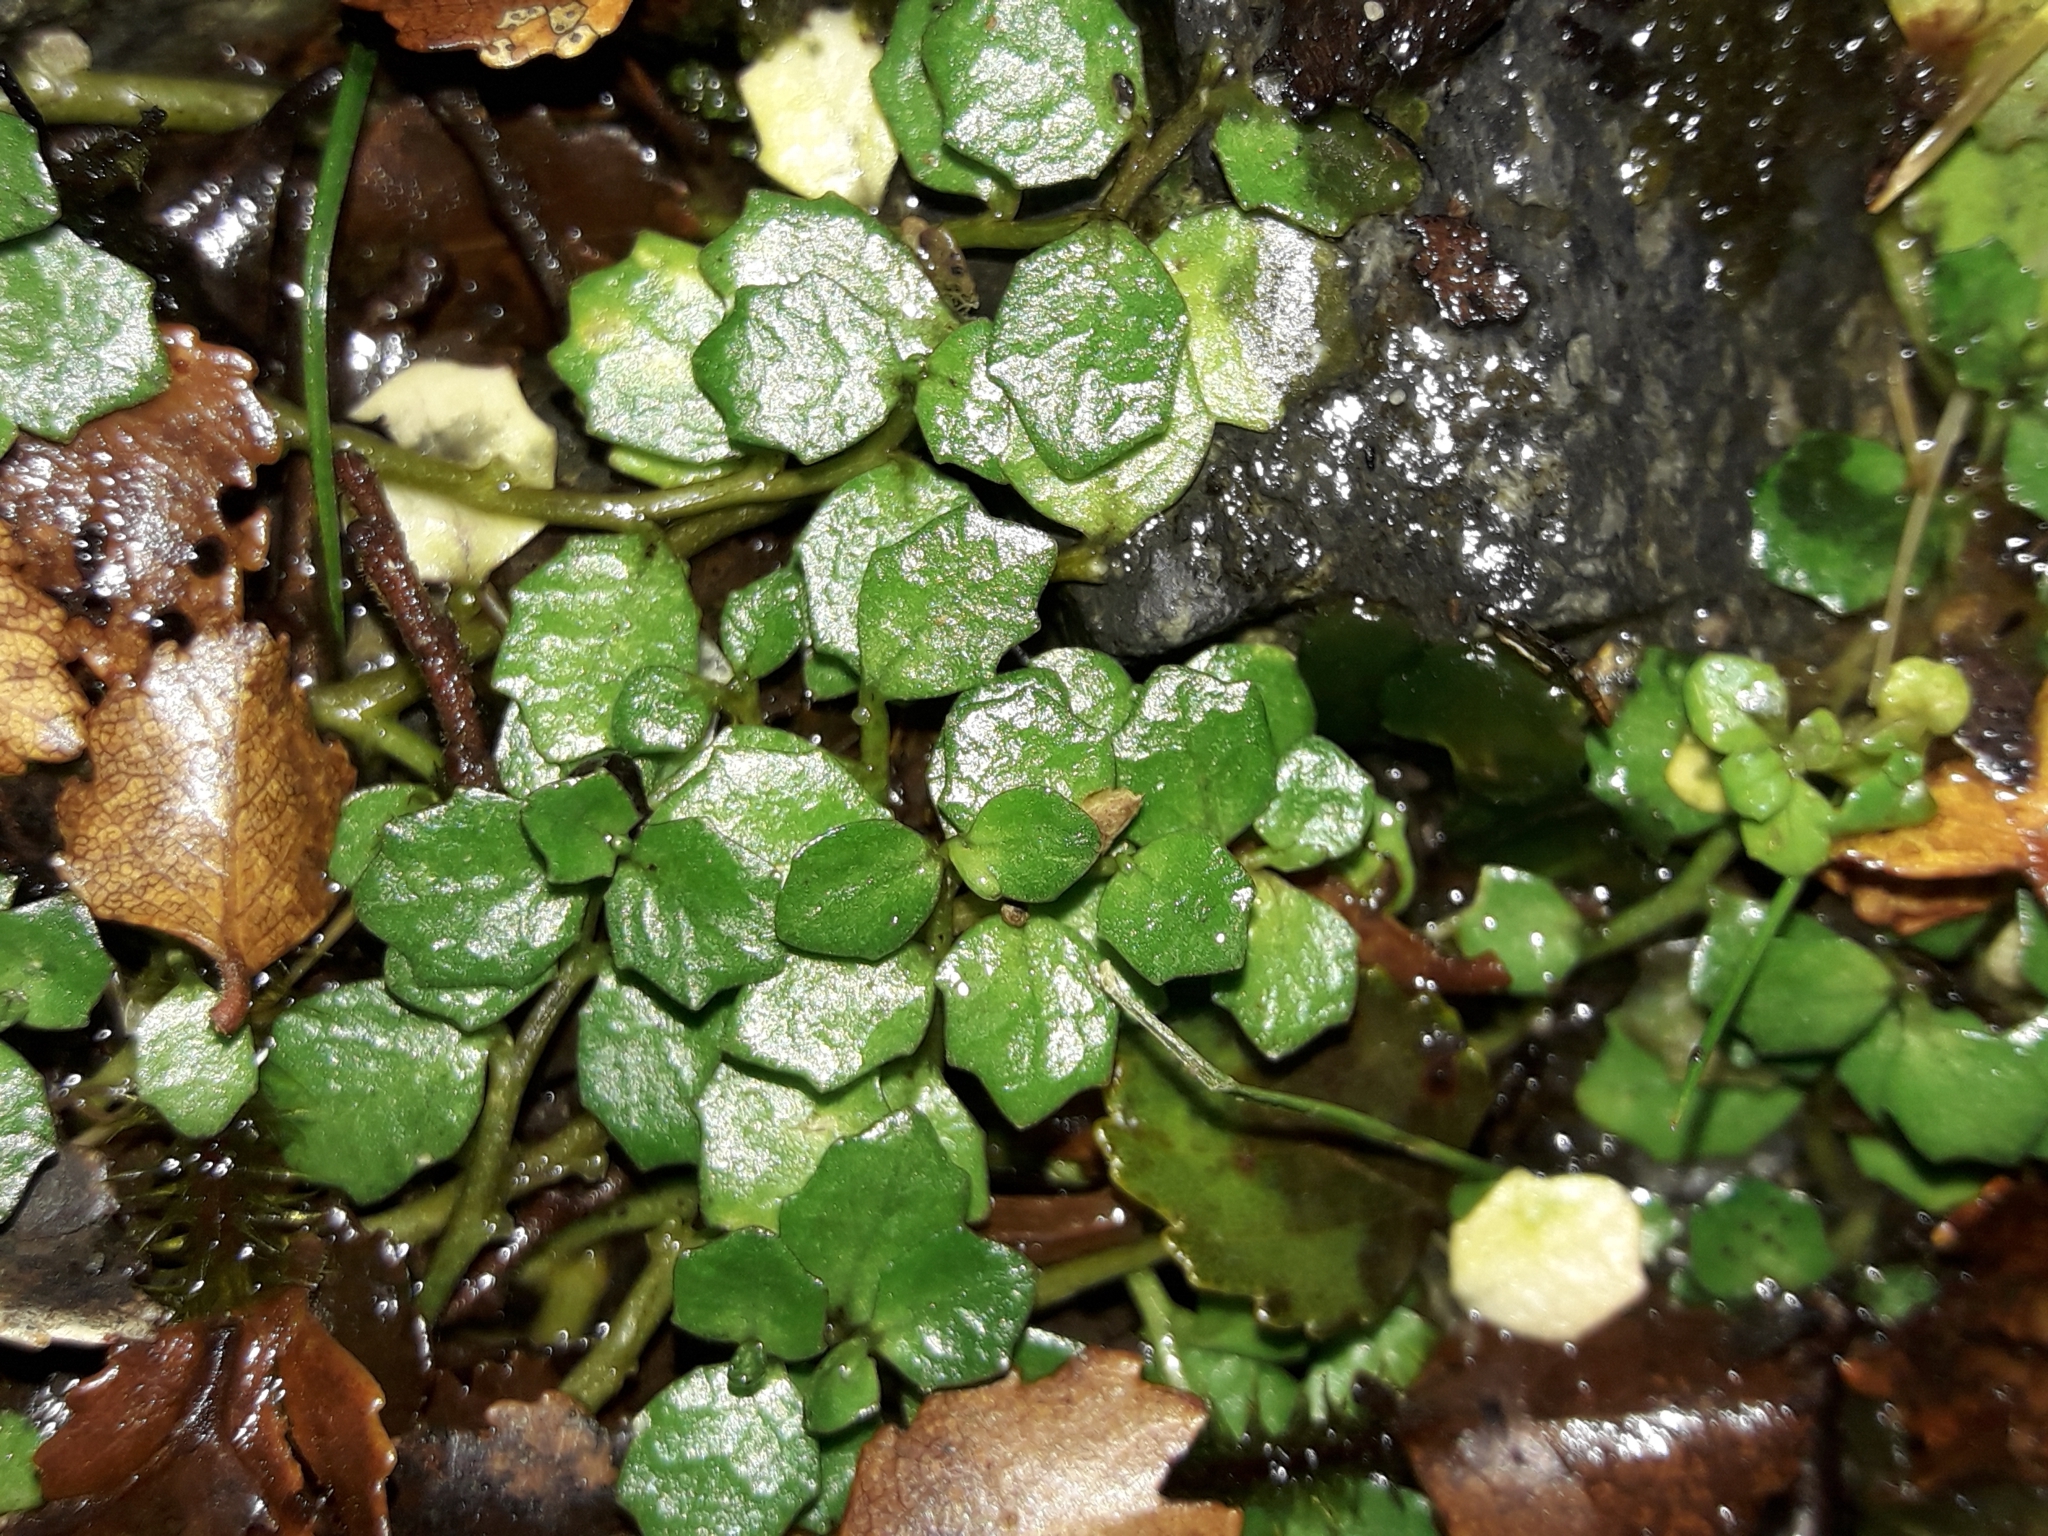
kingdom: Plantae
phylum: Tracheophyta
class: Magnoliopsida
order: Asterales
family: Campanulaceae
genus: Lobelia
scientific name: Lobelia angulata
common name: Lawn lobelia
